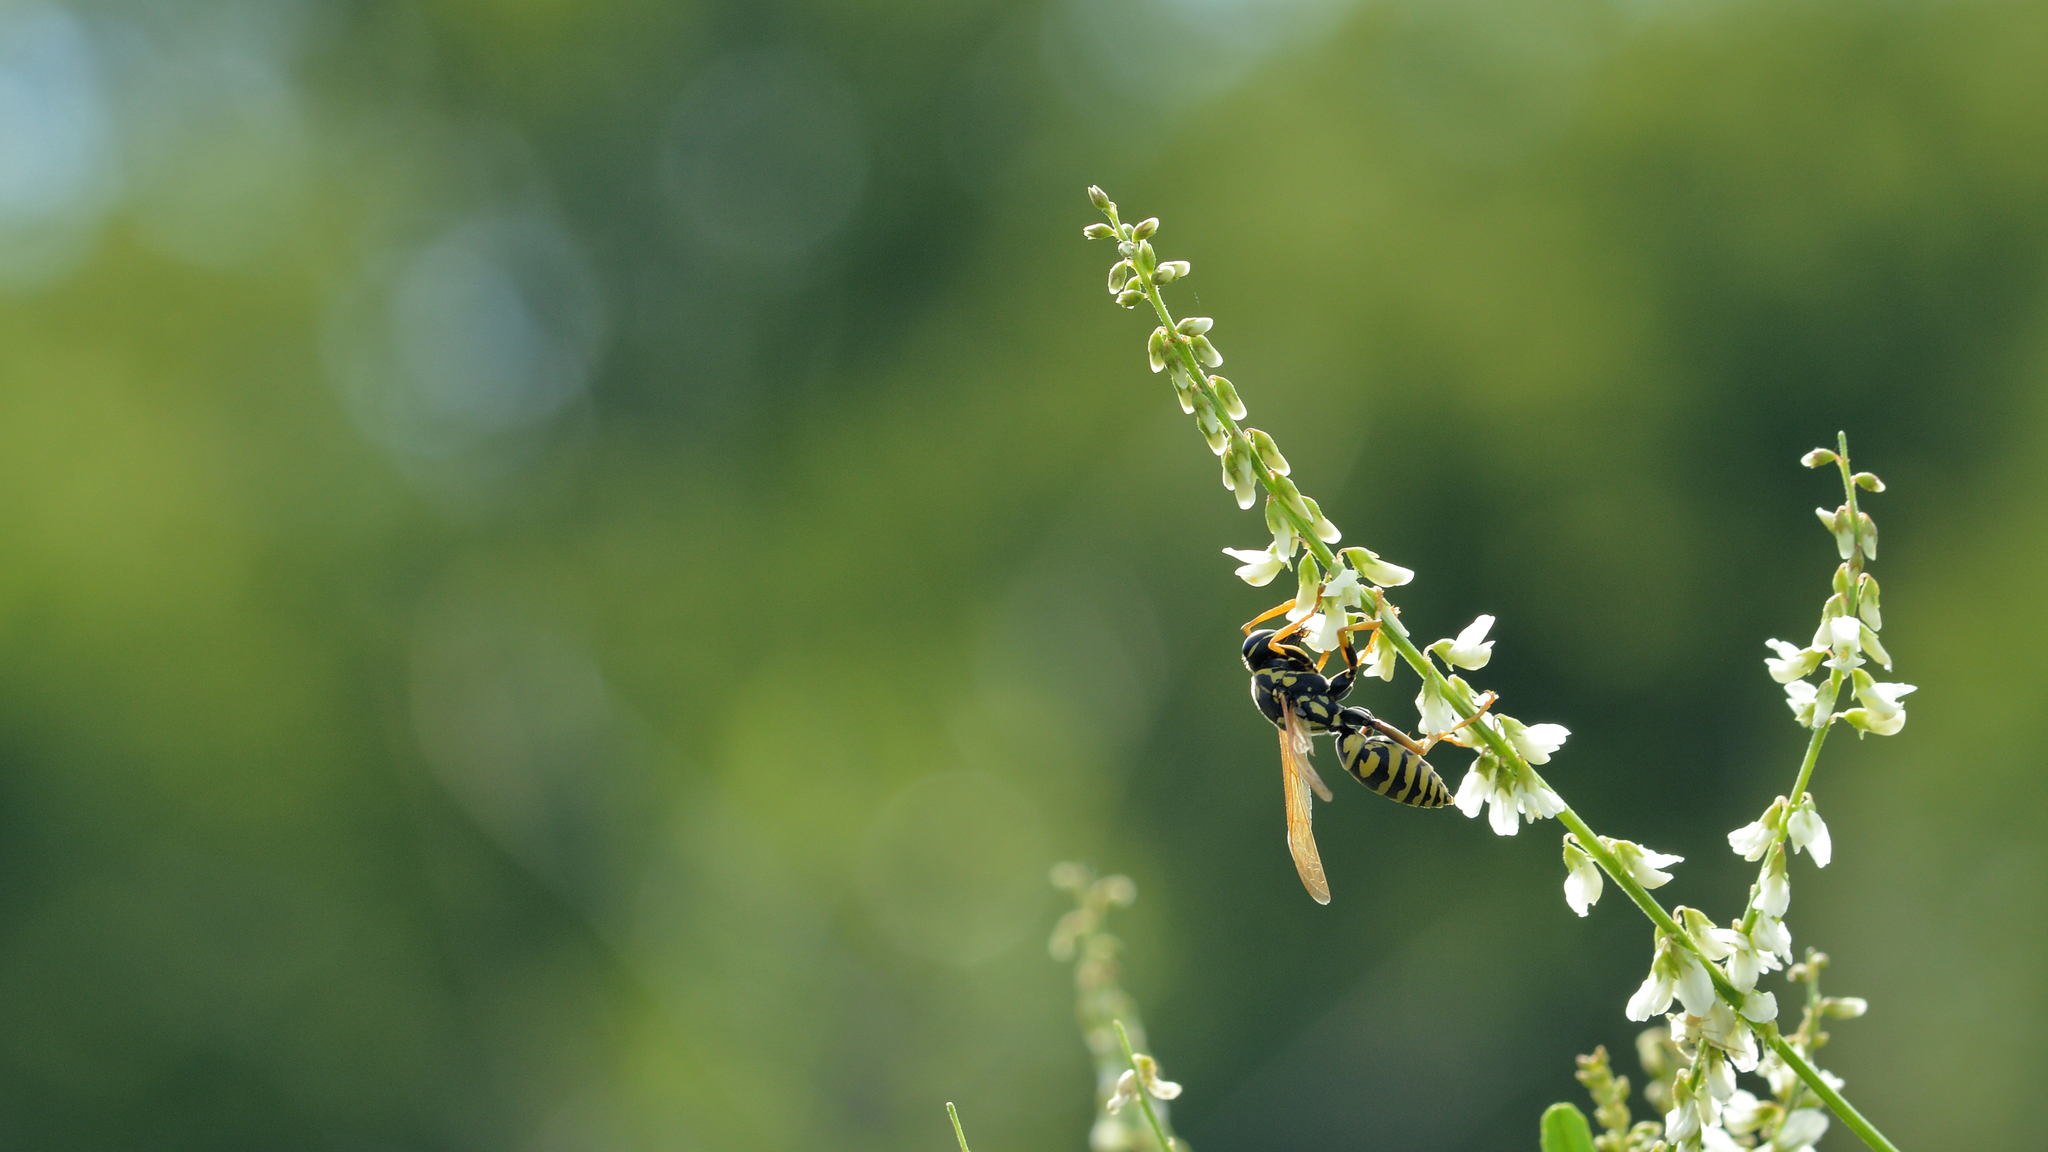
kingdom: Animalia
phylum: Arthropoda
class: Insecta
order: Hymenoptera
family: Eumenidae
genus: Polistes
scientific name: Polistes dominula
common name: Paper wasp
